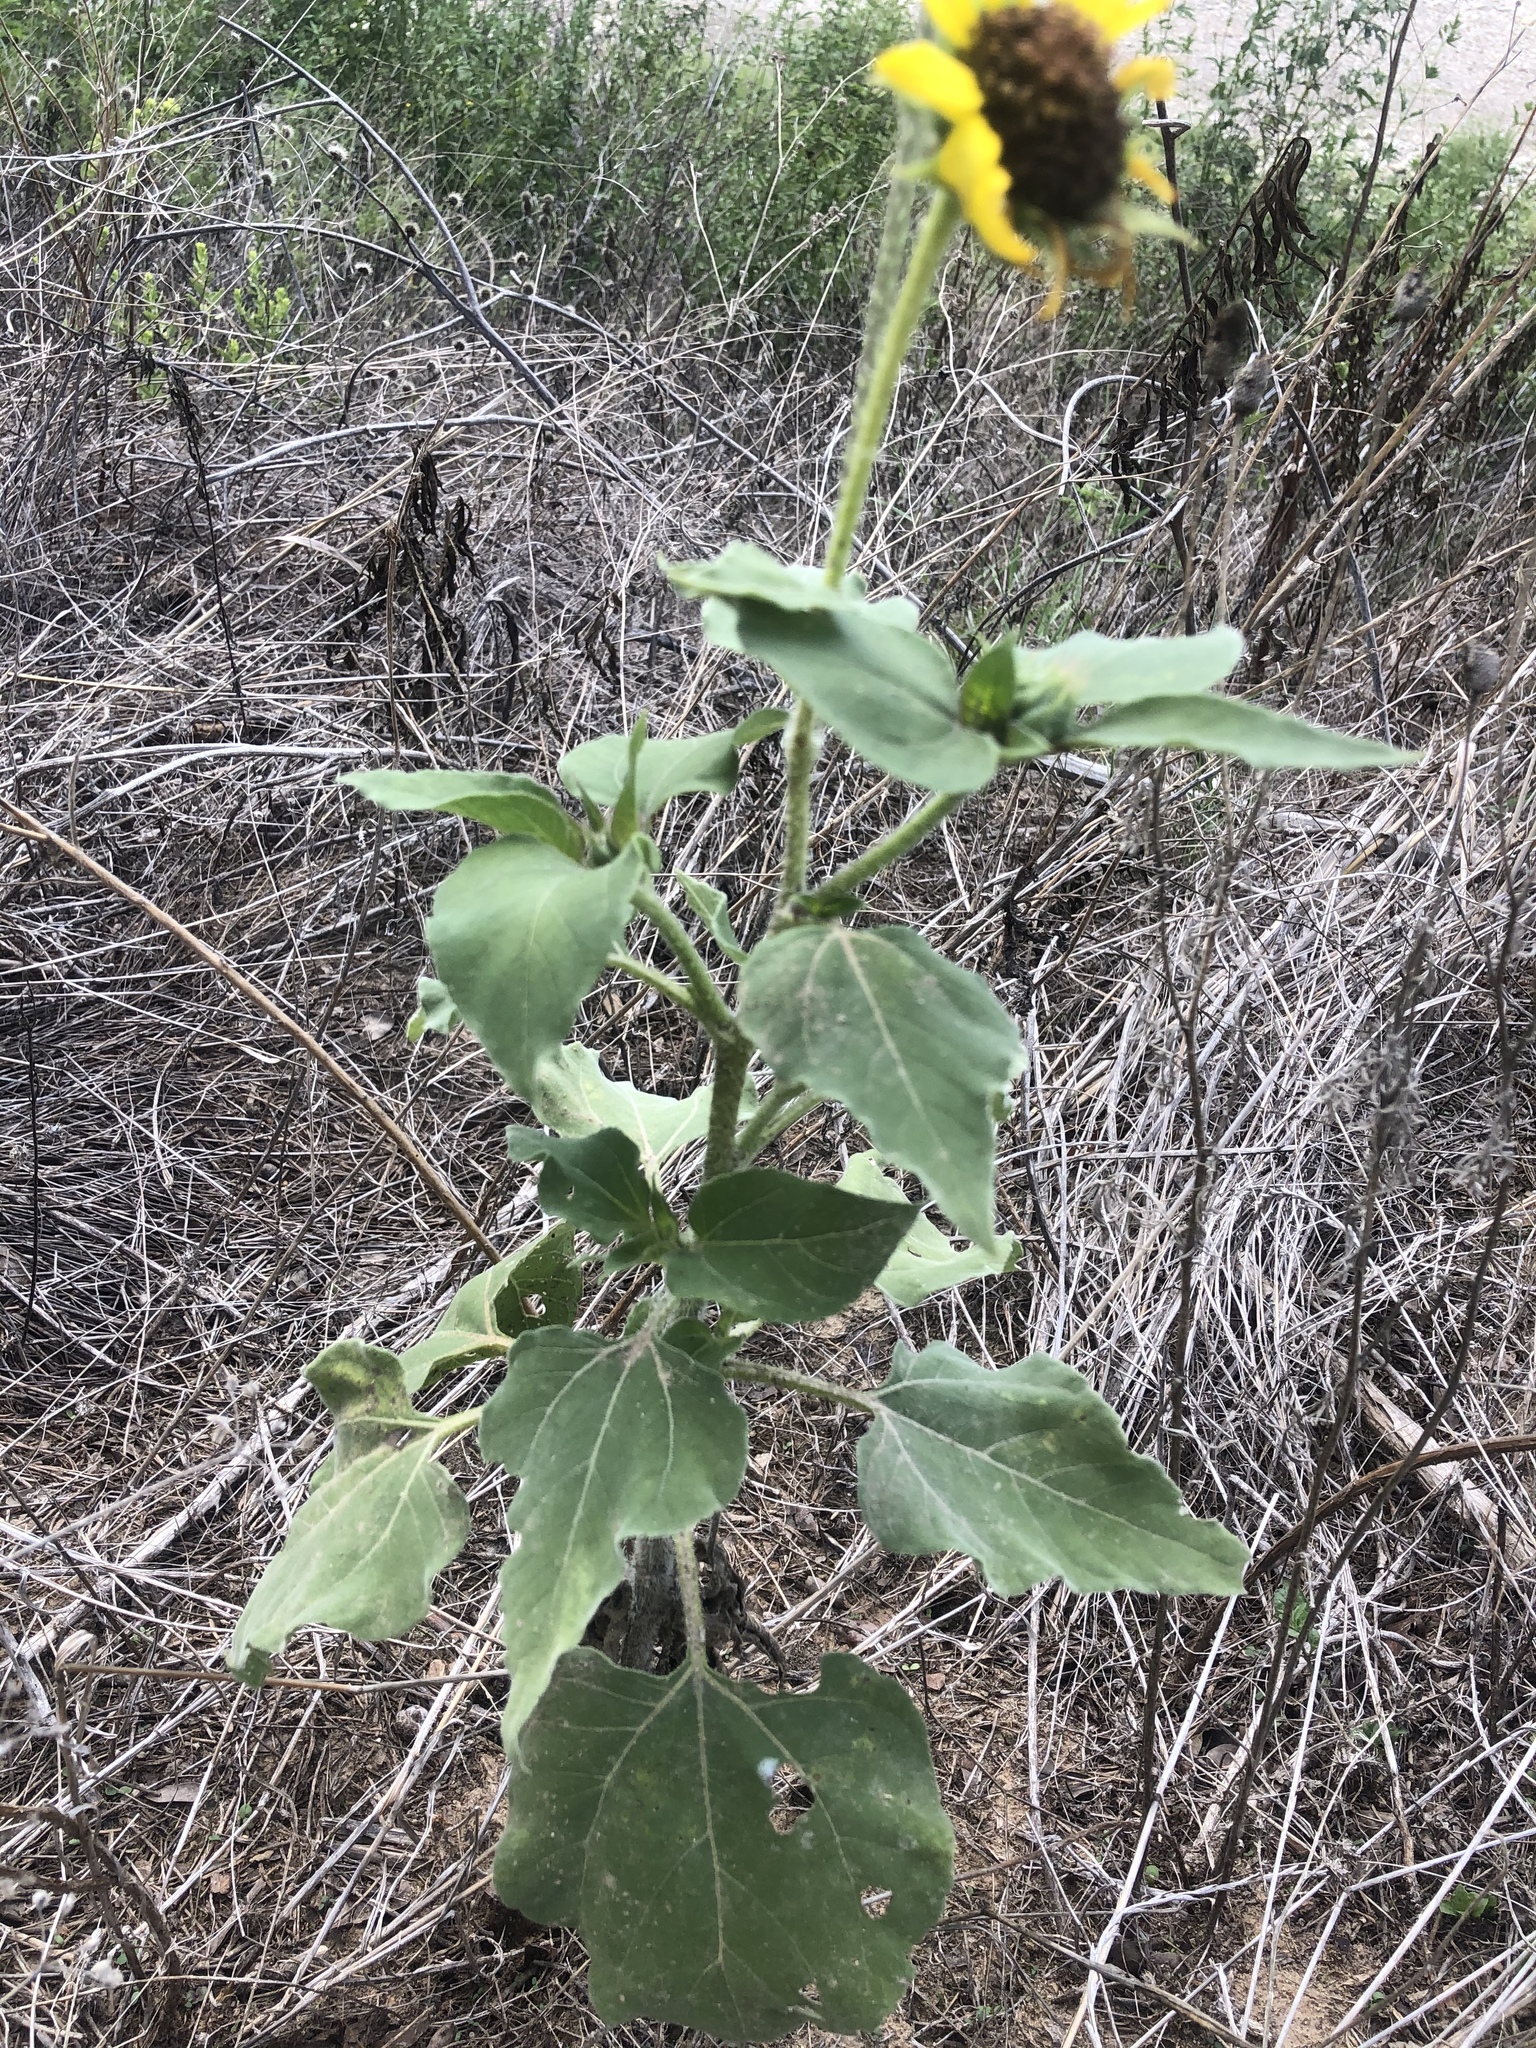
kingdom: Plantae
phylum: Tracheophyta
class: Magnoliopsida
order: Asterales
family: Asteraceae
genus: Helianthus
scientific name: Helianthus annuus
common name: Sunflower
